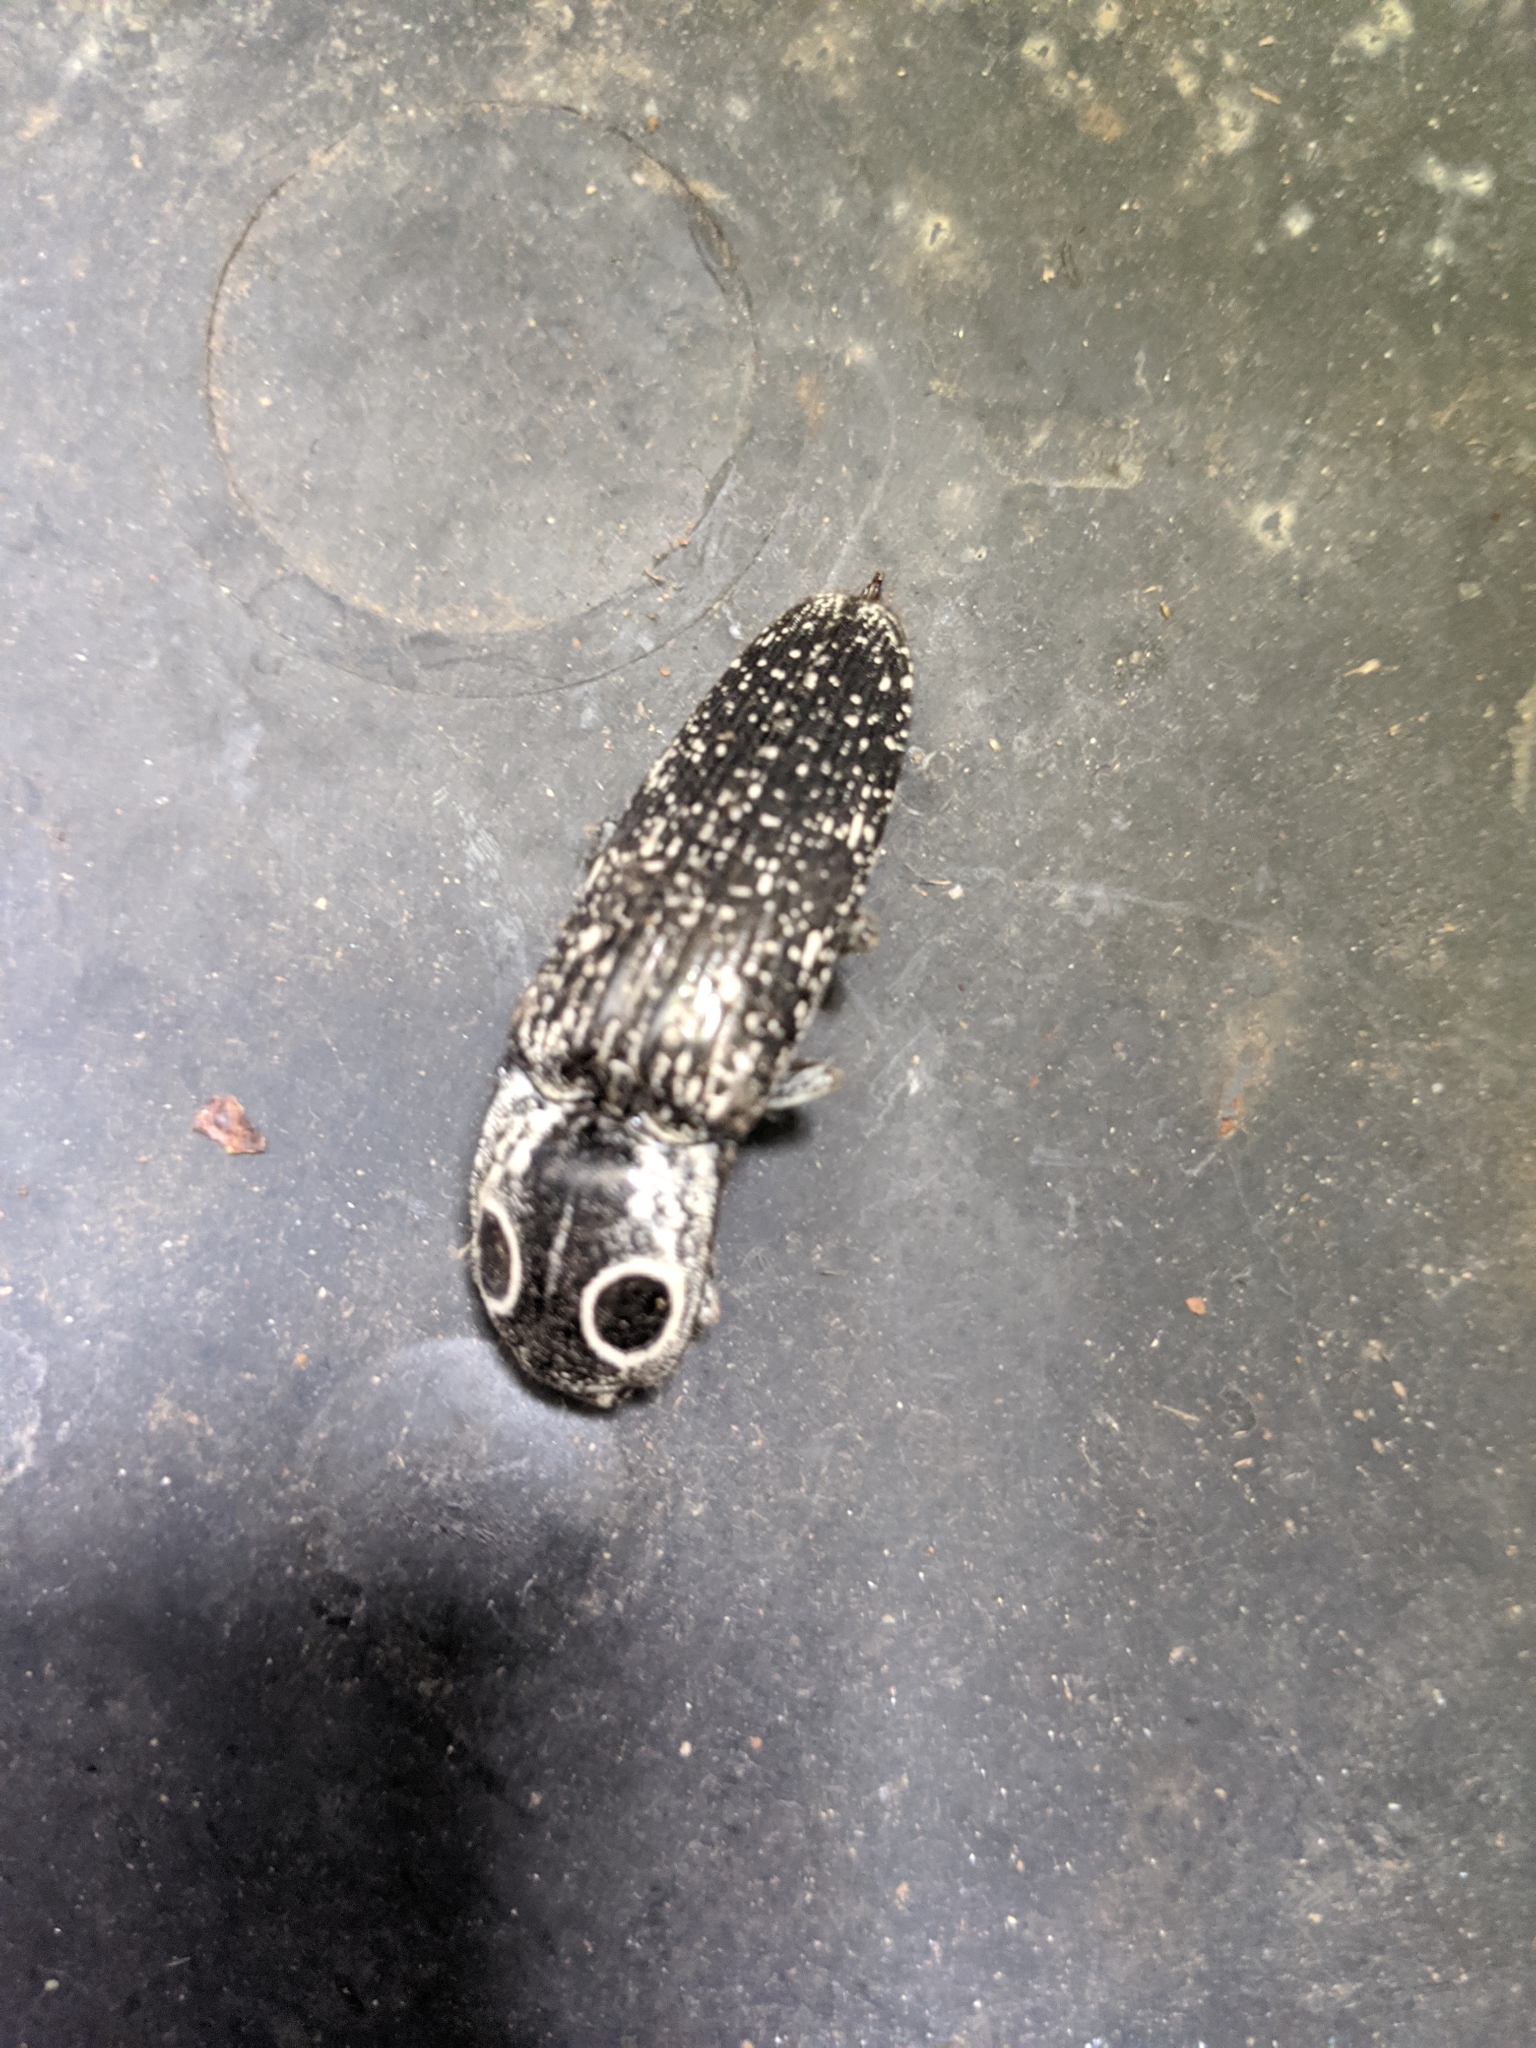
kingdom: Animalia
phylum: Arthropoda
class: Insecta
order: Coleoptera
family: Elateridae
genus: Alaus
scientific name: Alaus oculatus
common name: Eastern eyed click beetle
